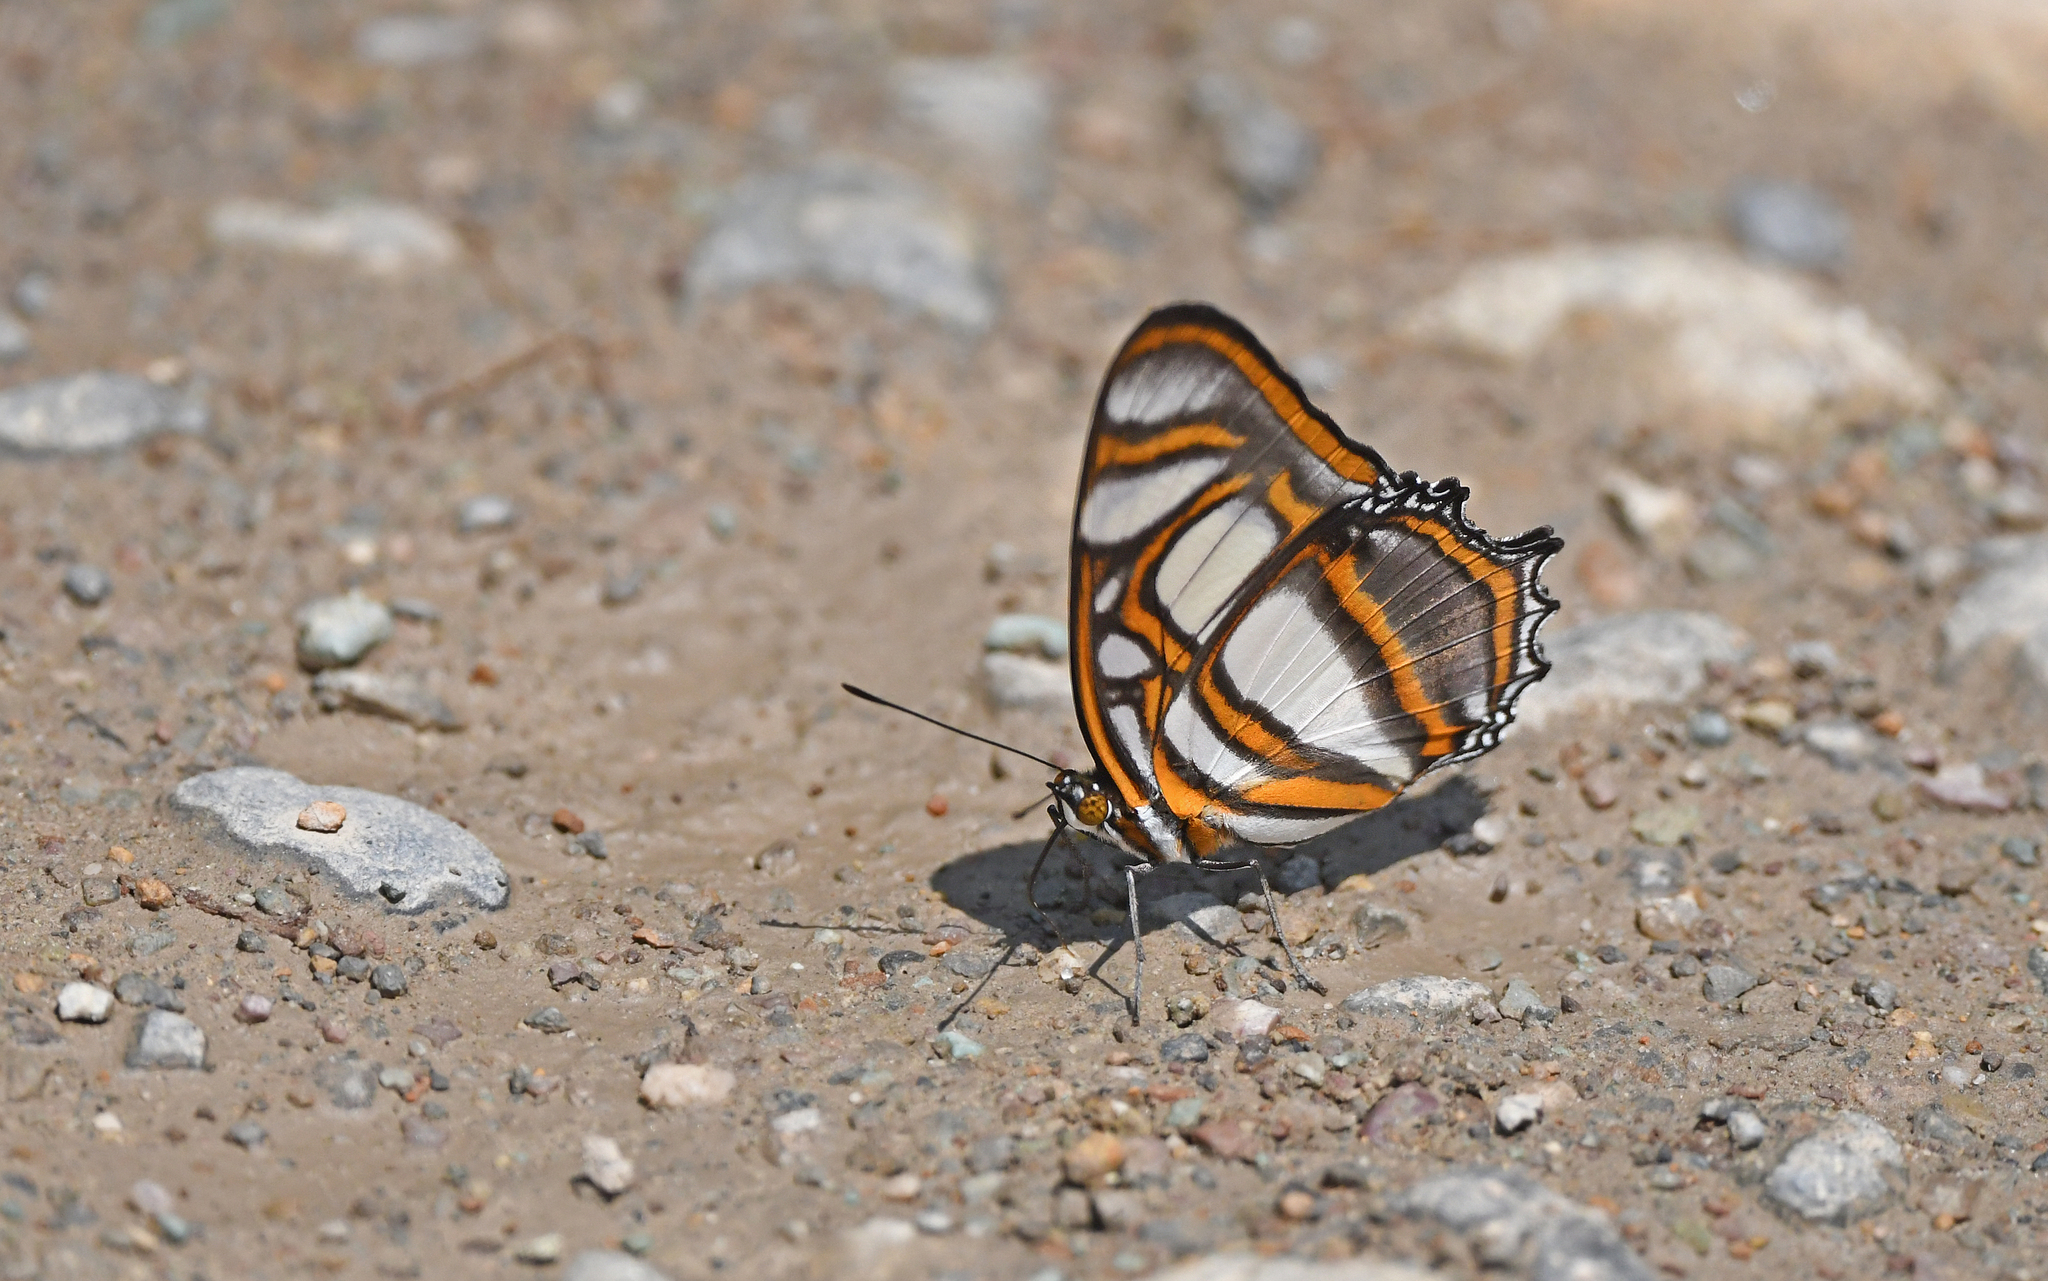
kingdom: Animalia
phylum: Arthropoda
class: Insecta
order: Lepidoptera
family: Nymphalidae
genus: Metamorpha
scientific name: Metamorpha elissa
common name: Elissa page
